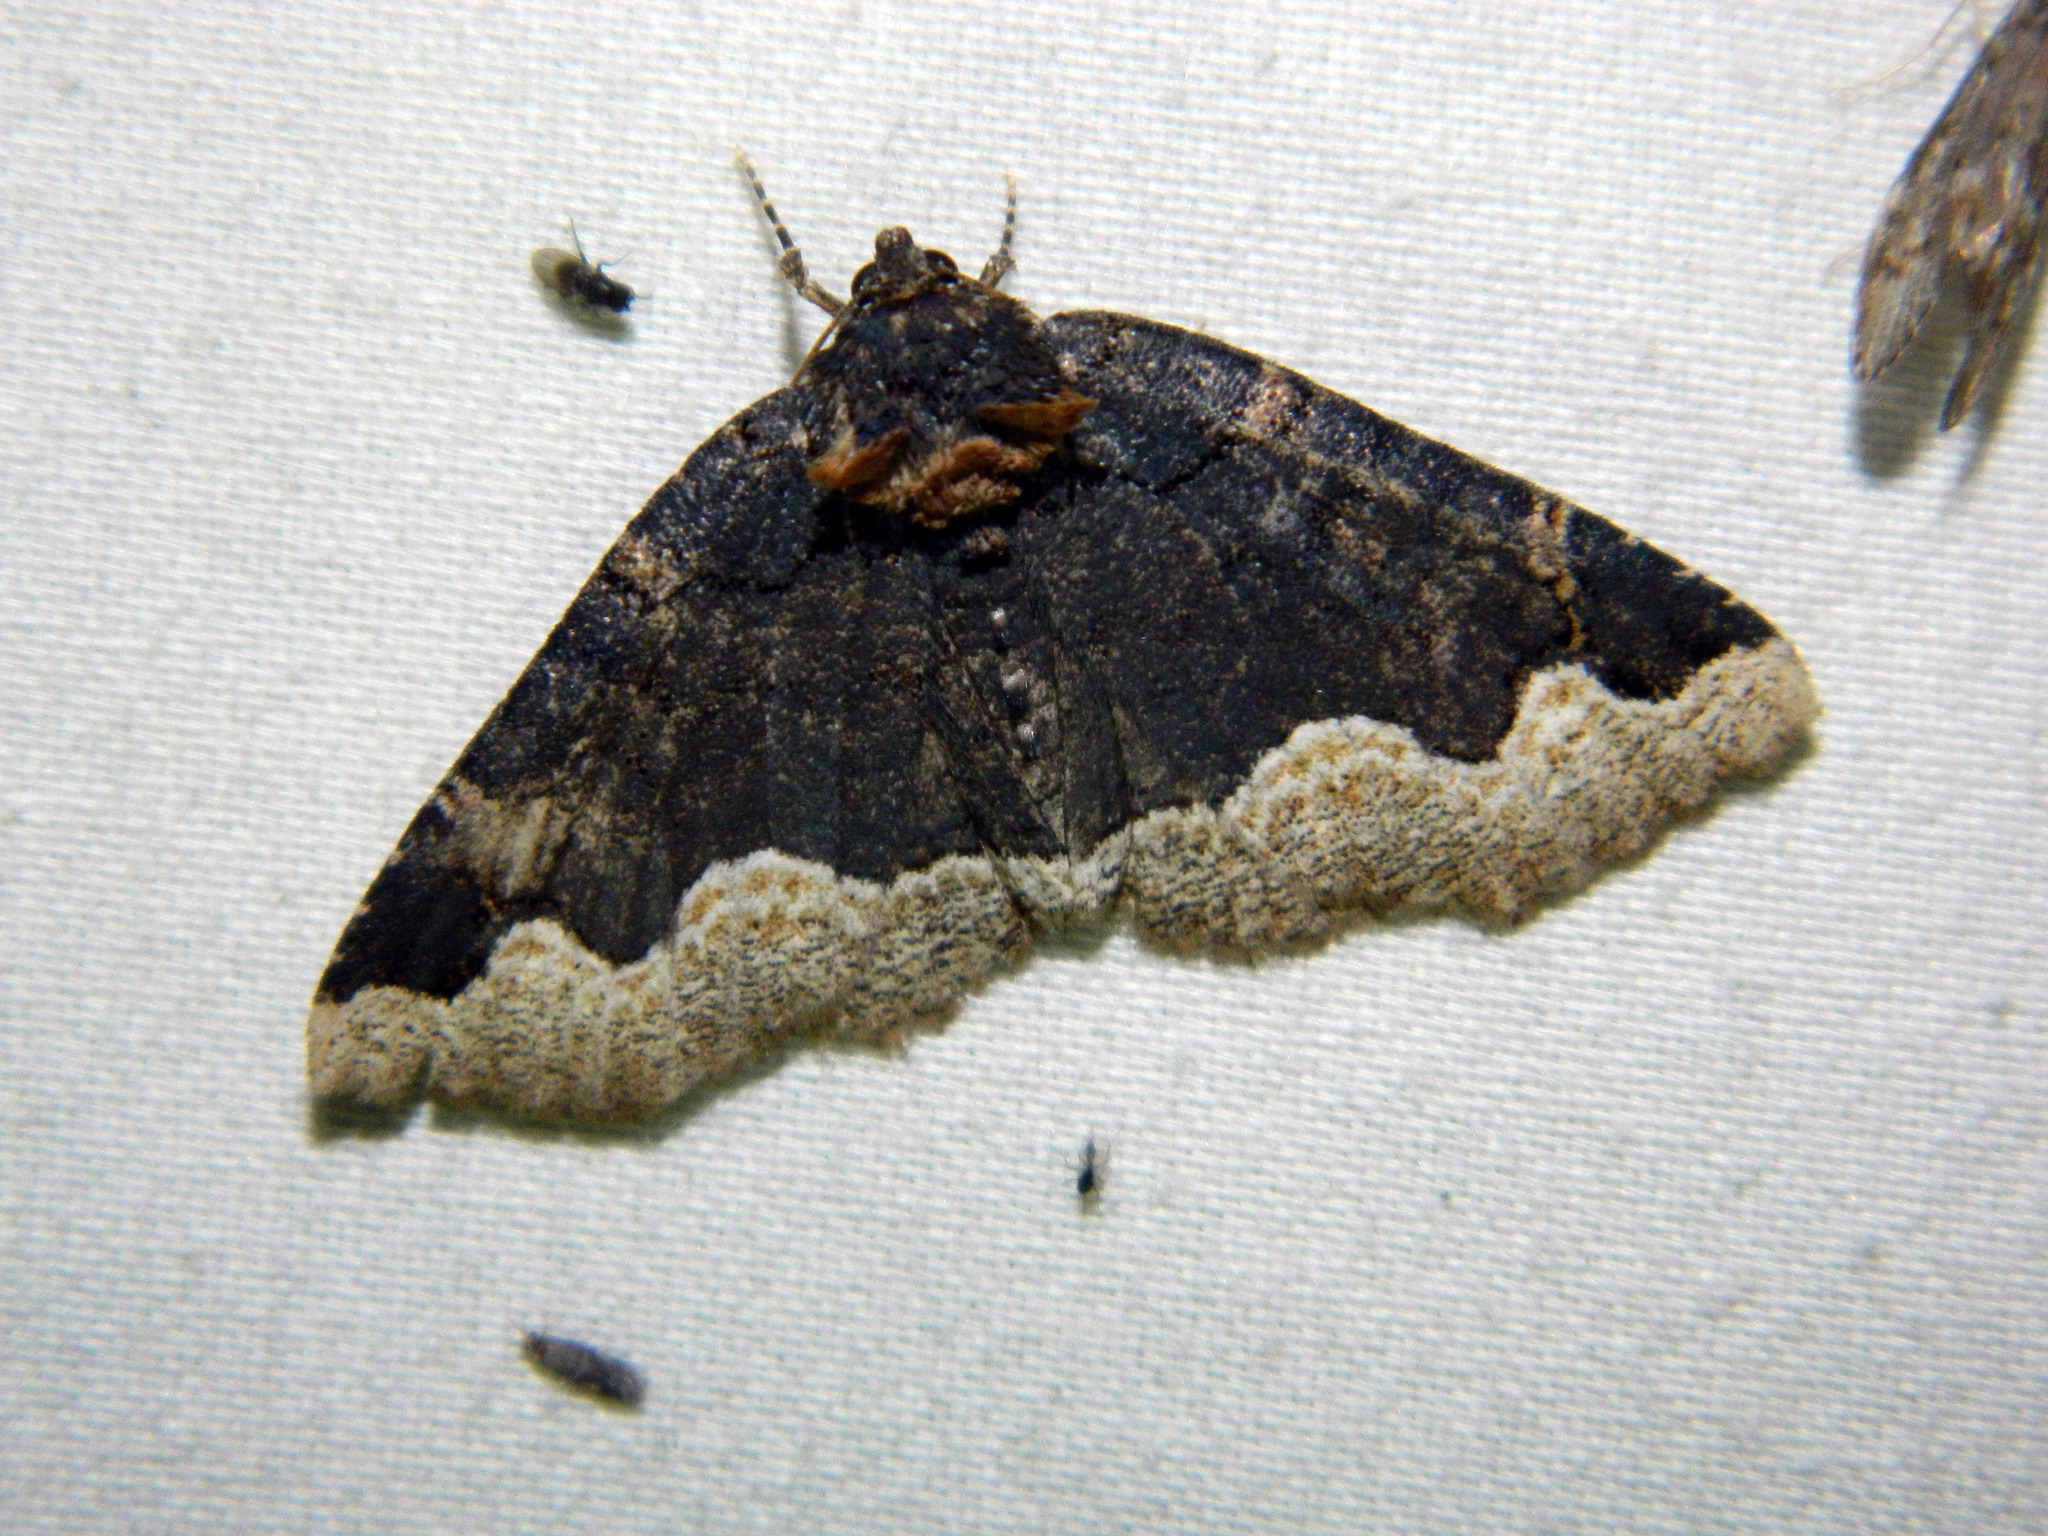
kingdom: Animalia
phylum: Arthropoda
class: Insecta
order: Lepidoptera
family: Erebidae
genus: Zale
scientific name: Zale horrida
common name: Horrid zale moth
